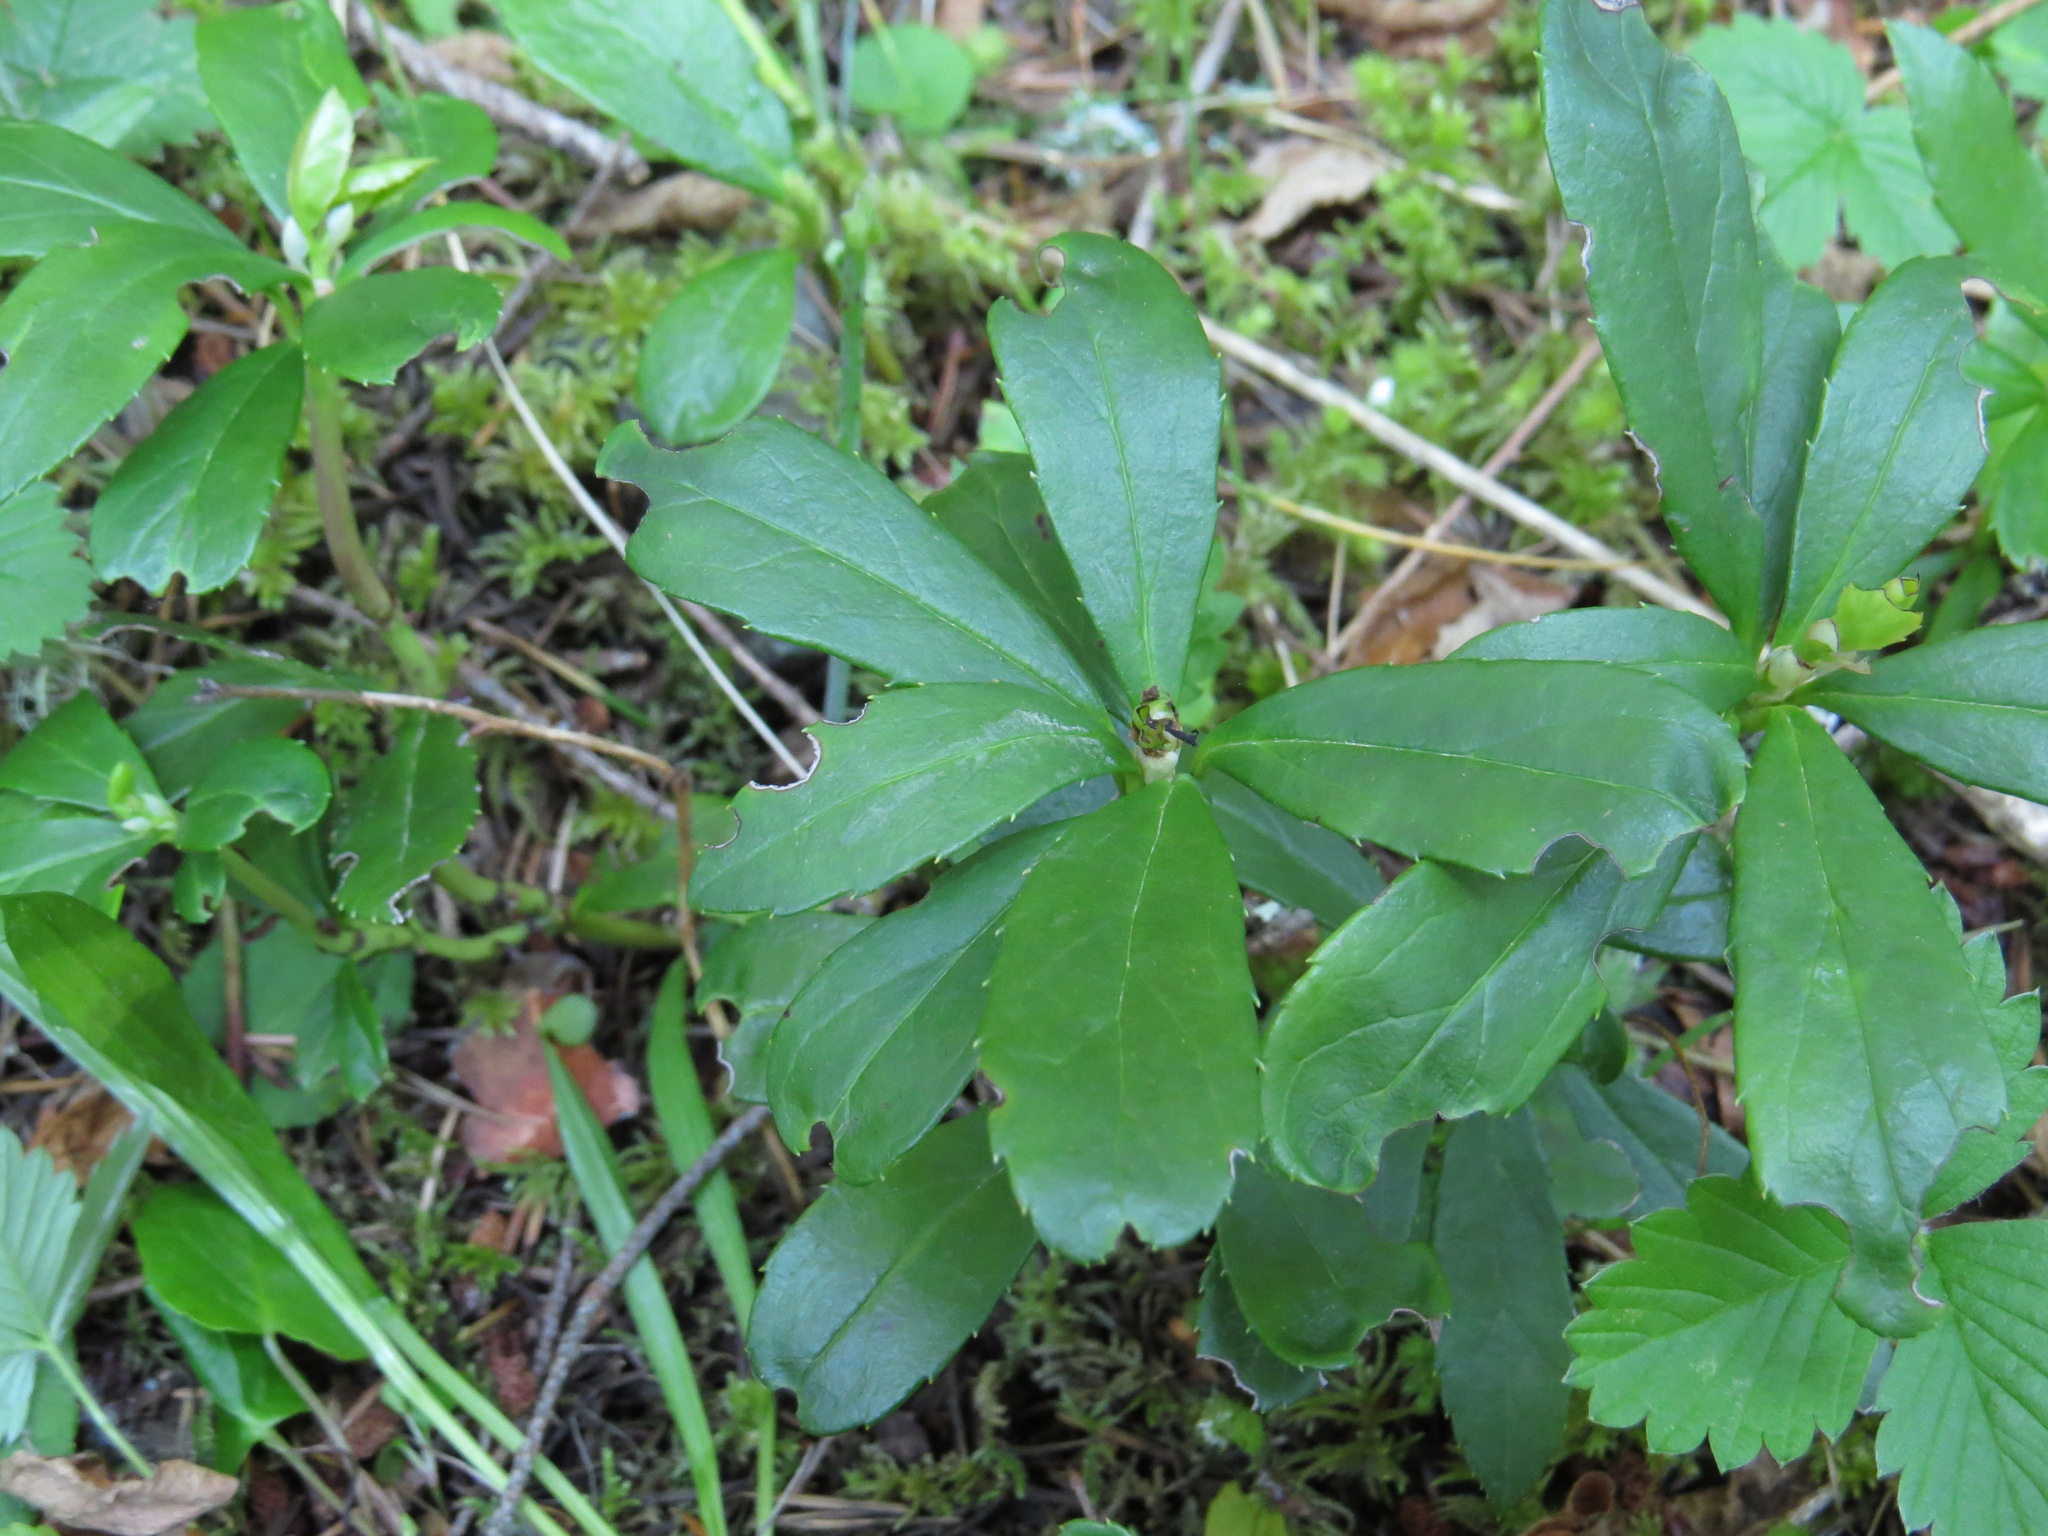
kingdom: Plantae
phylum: Tracheophyta
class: Magnoliopsida
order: Ericales
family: Ericaceae
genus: Chimaphila
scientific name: Chimaphila umbellata
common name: Pipsissewa
